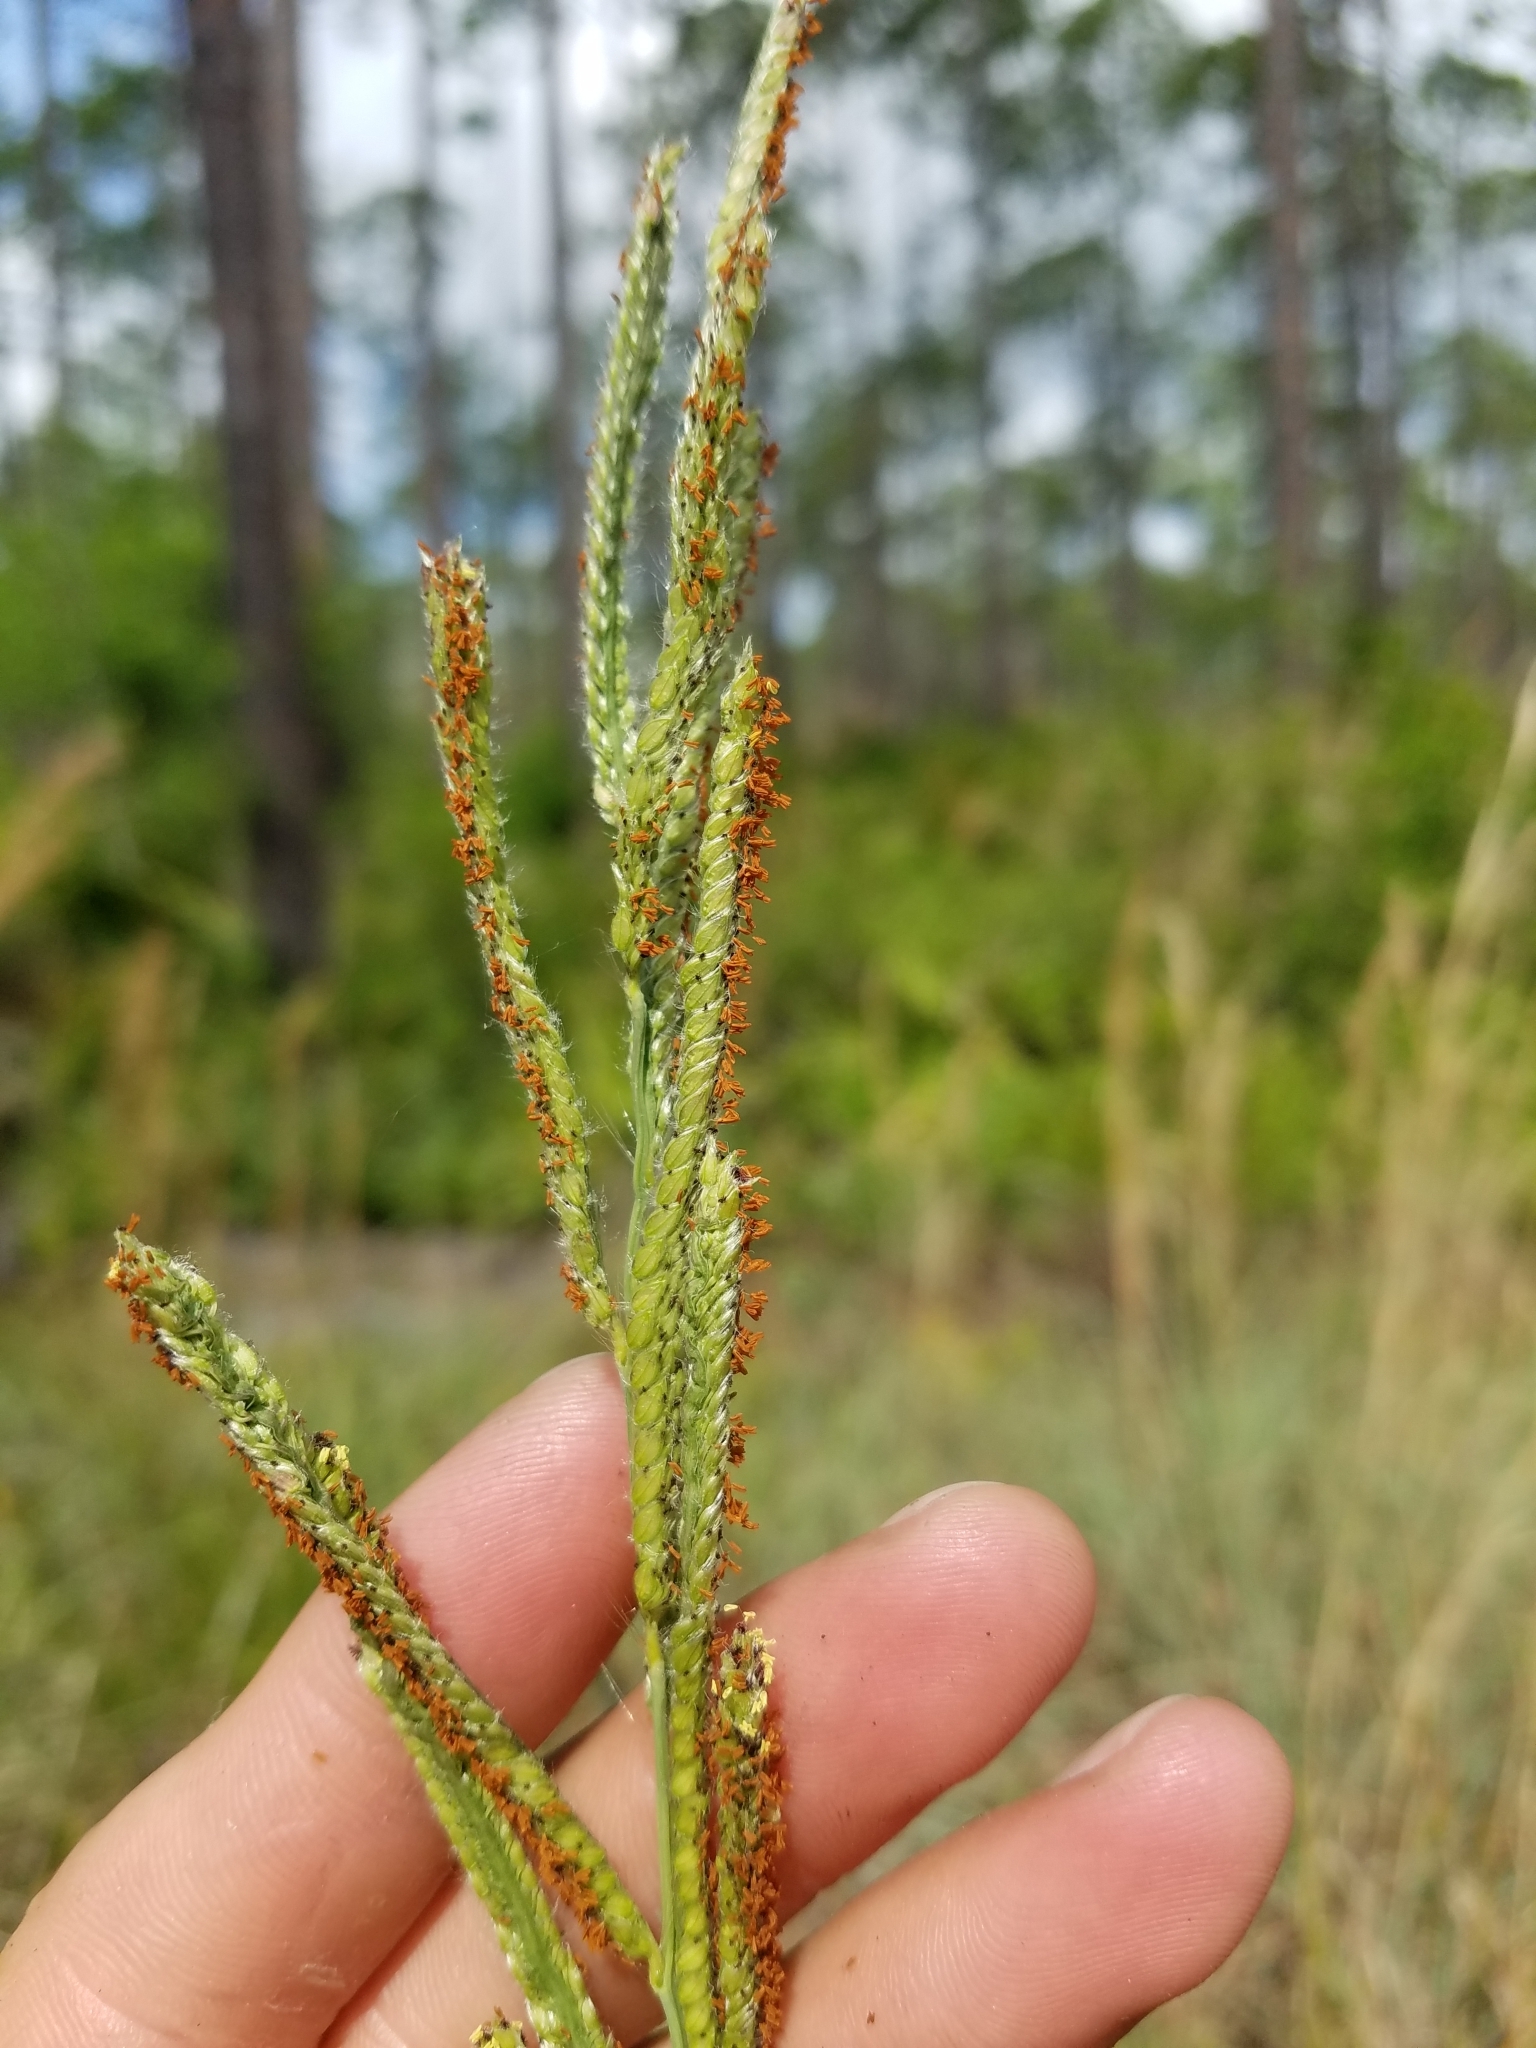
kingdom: Plantae
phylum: Tracheophyta
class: Liliopsida
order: Poales
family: Poaceae
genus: Paspalum
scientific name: Paspalum urvillei
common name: Vasey's grass
